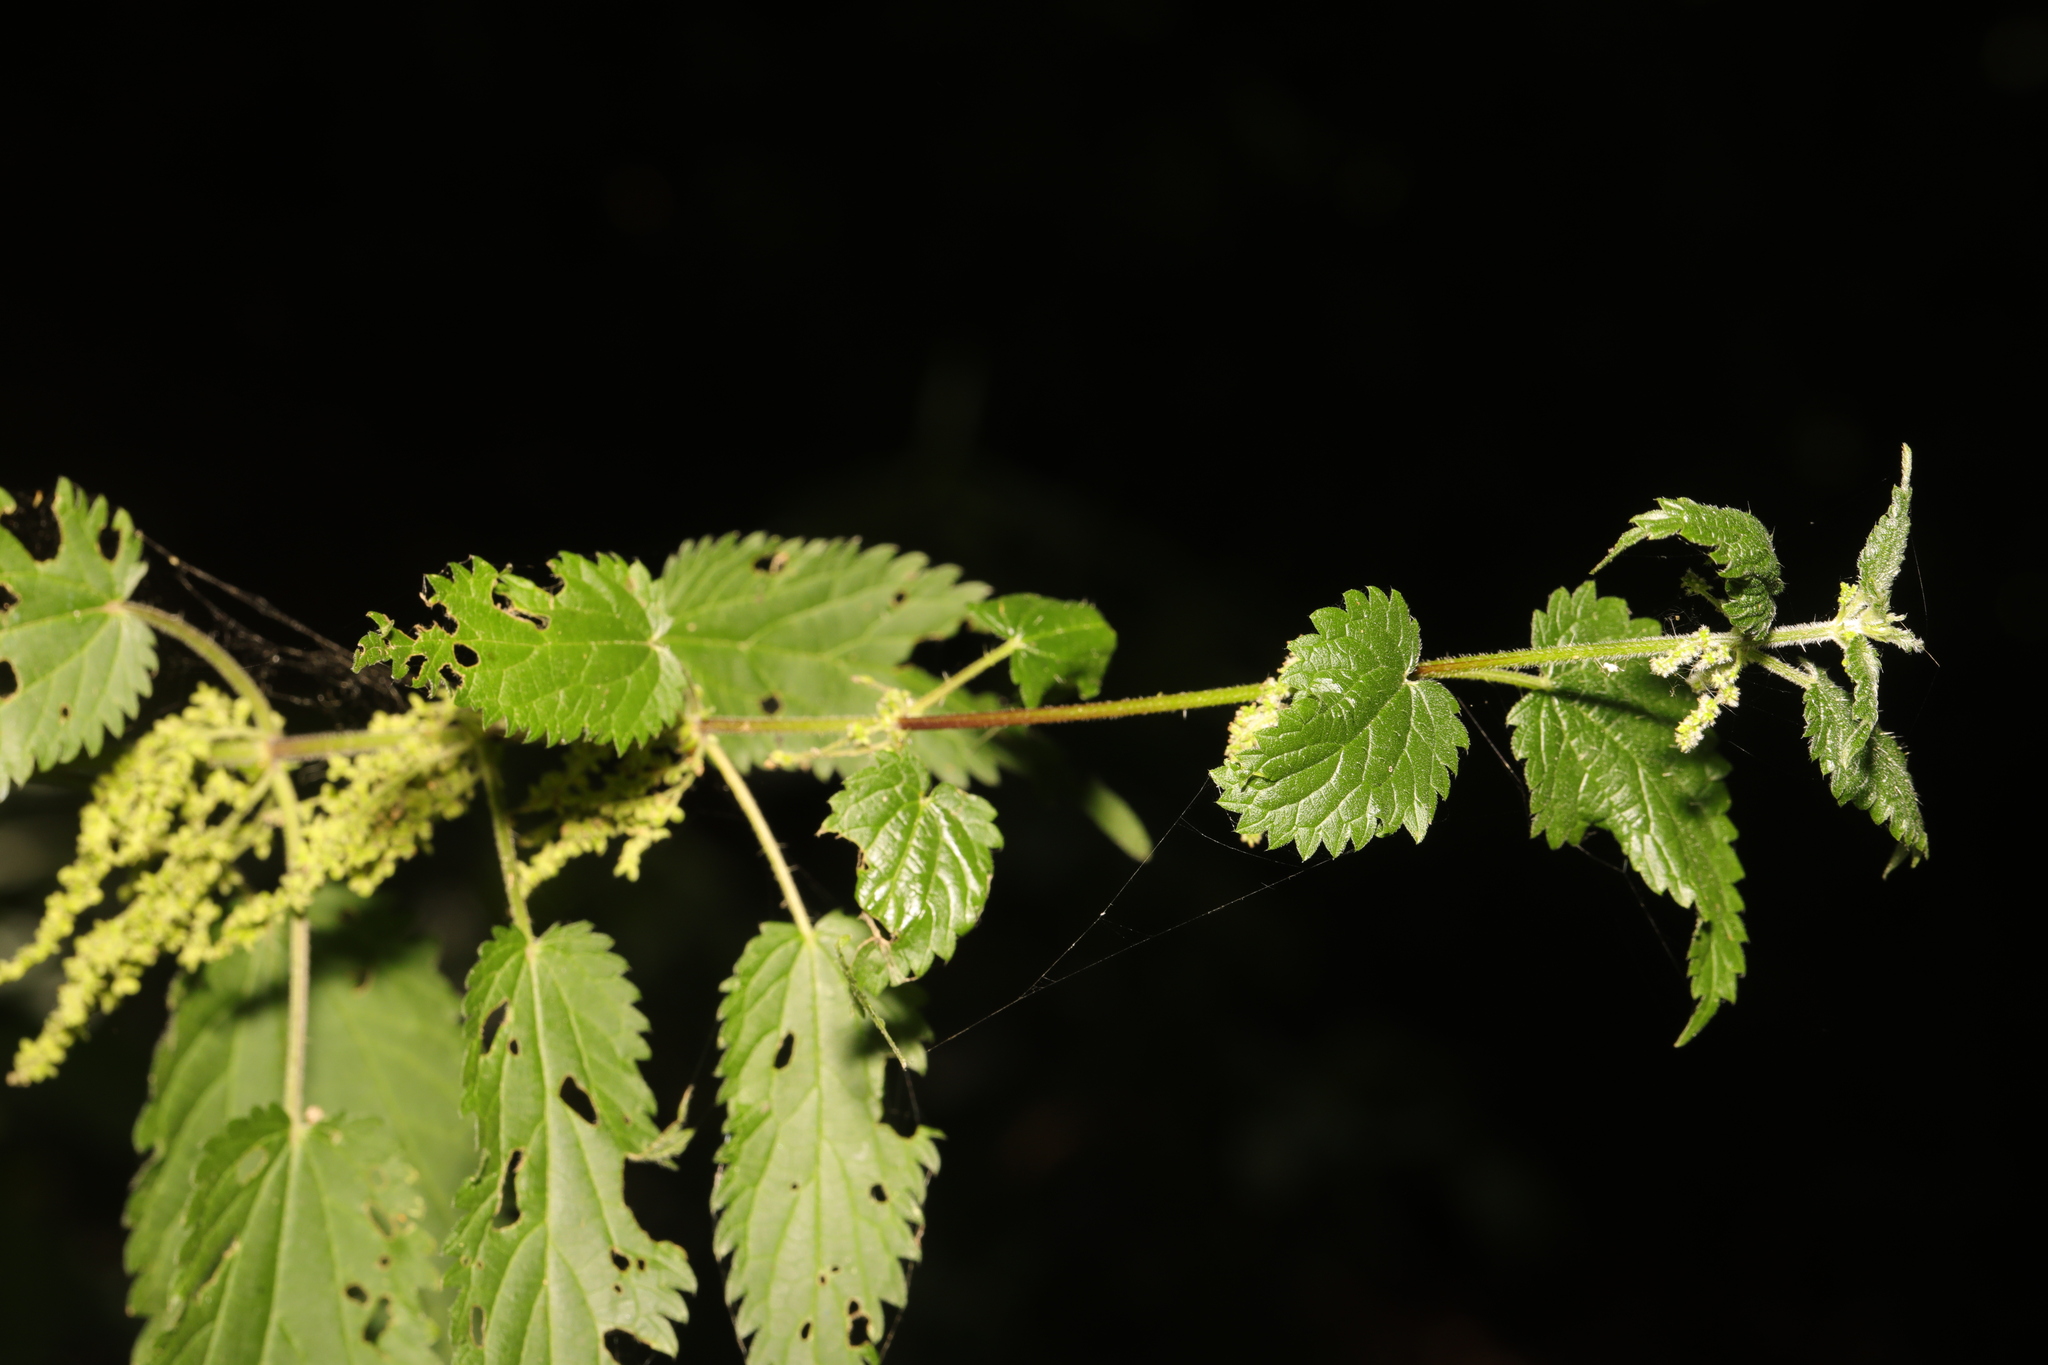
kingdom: Plantae
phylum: Tracheophyta
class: Magnoliopsida
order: Rosales
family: Urticaceae
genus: Urtica
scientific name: Urtica dioica
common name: Common nettle
